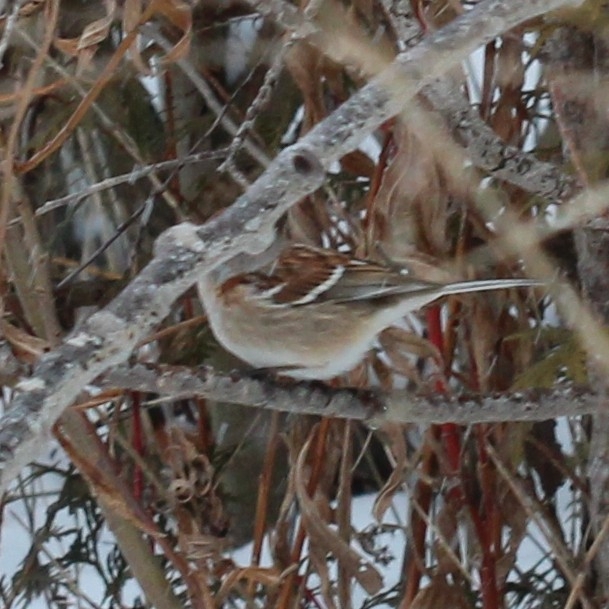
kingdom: Animalia
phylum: Chordata
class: Aves
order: Passeriformes
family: Passerellidae
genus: Spizelloides
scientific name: Spizelloides arborea
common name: American tree sparrow
